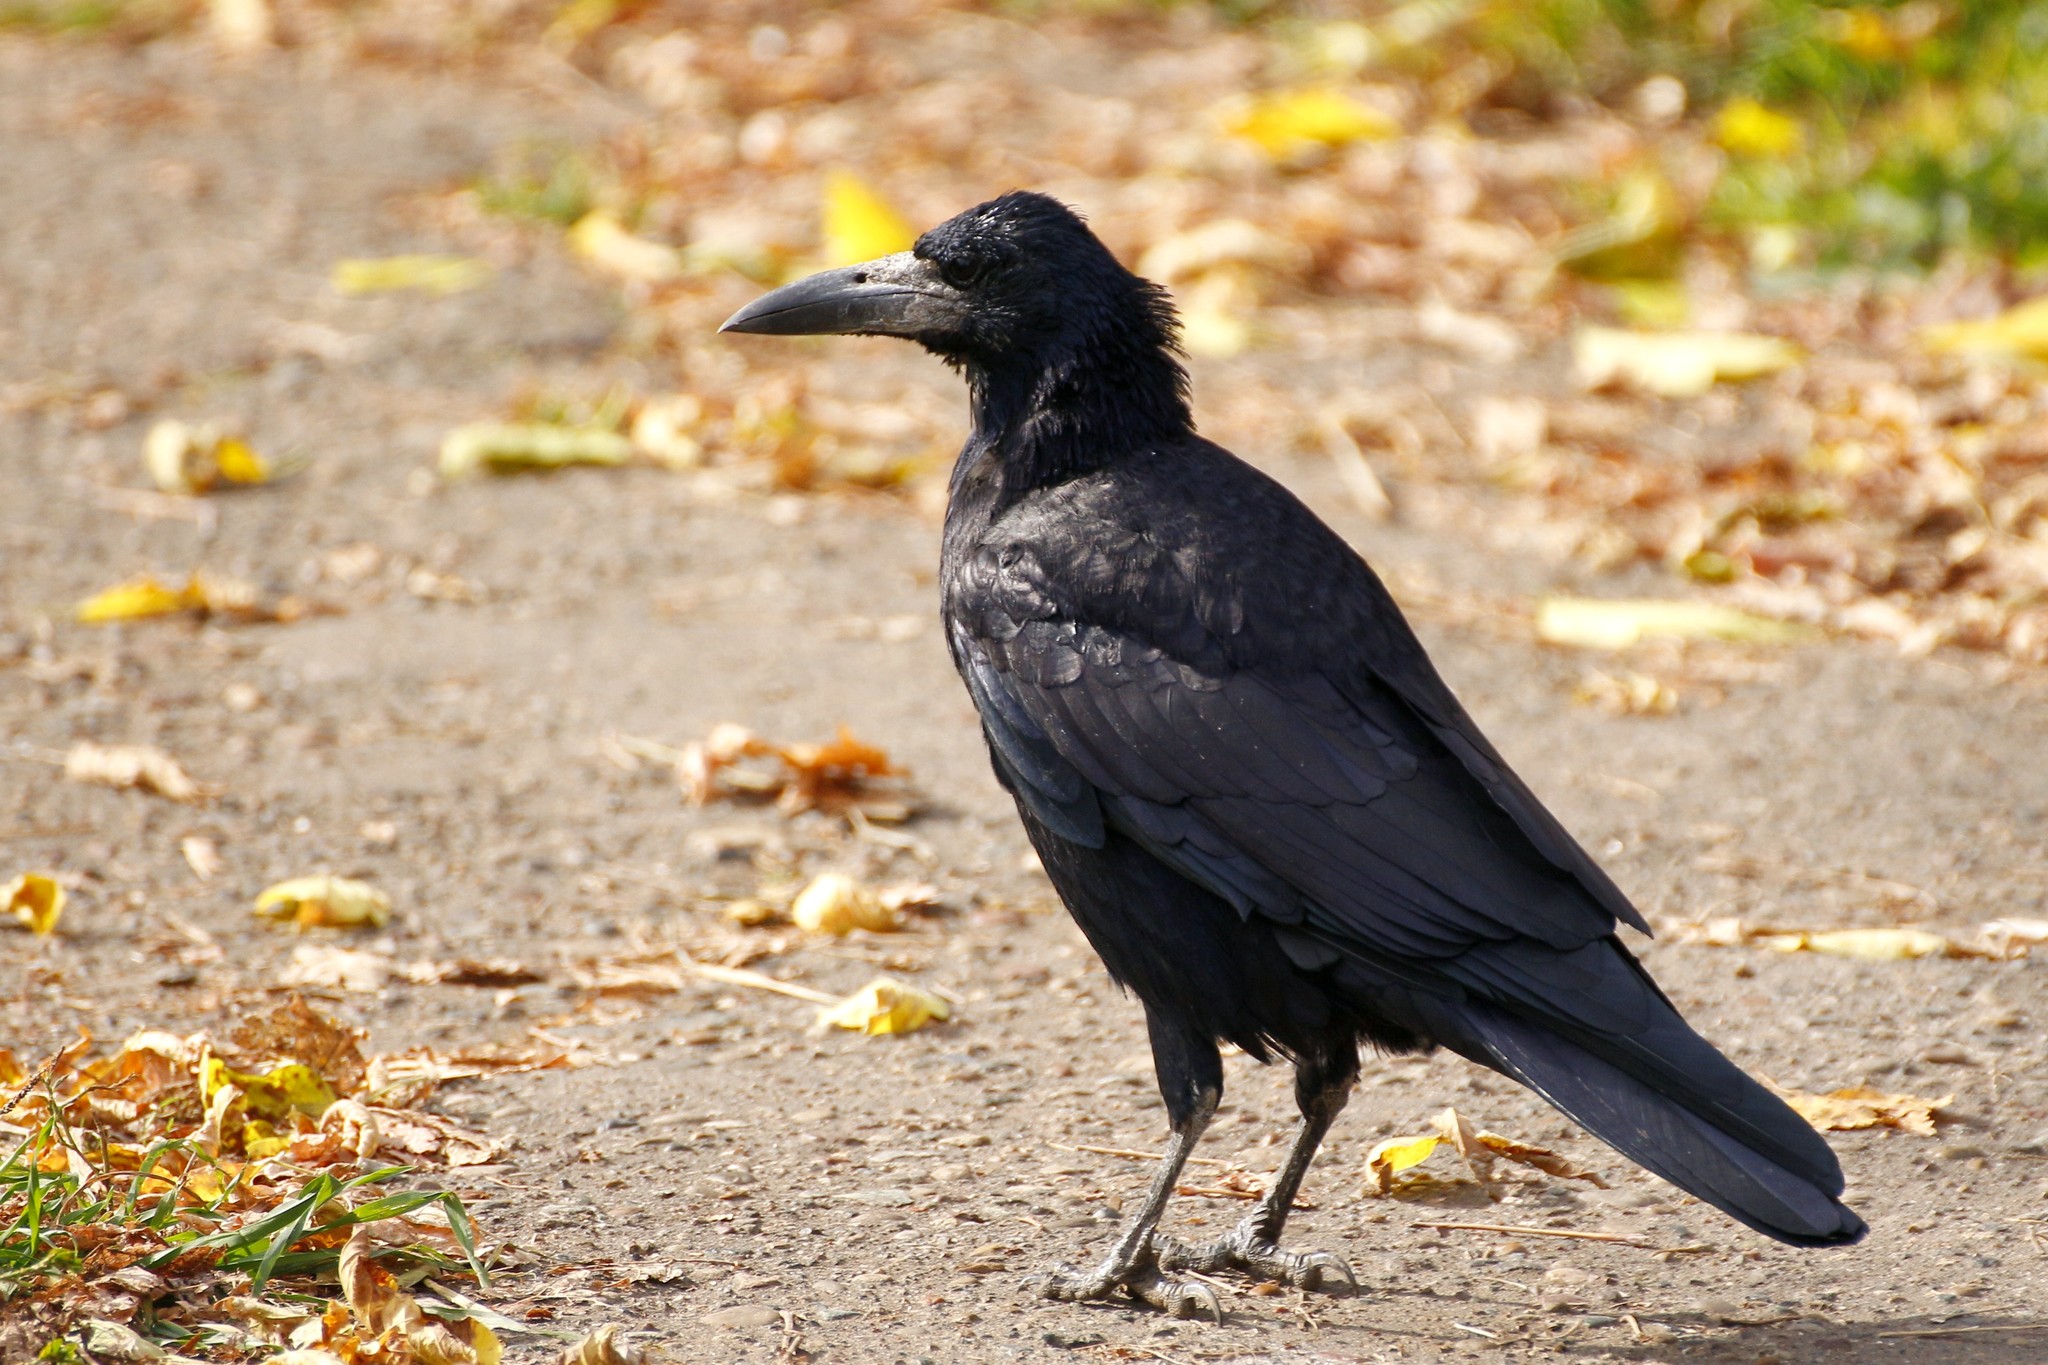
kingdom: Animalia
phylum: Chordata
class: Aves
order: Passeriformes
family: Corvidae
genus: Corvus
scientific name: Corvus frugilegus
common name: Rook
